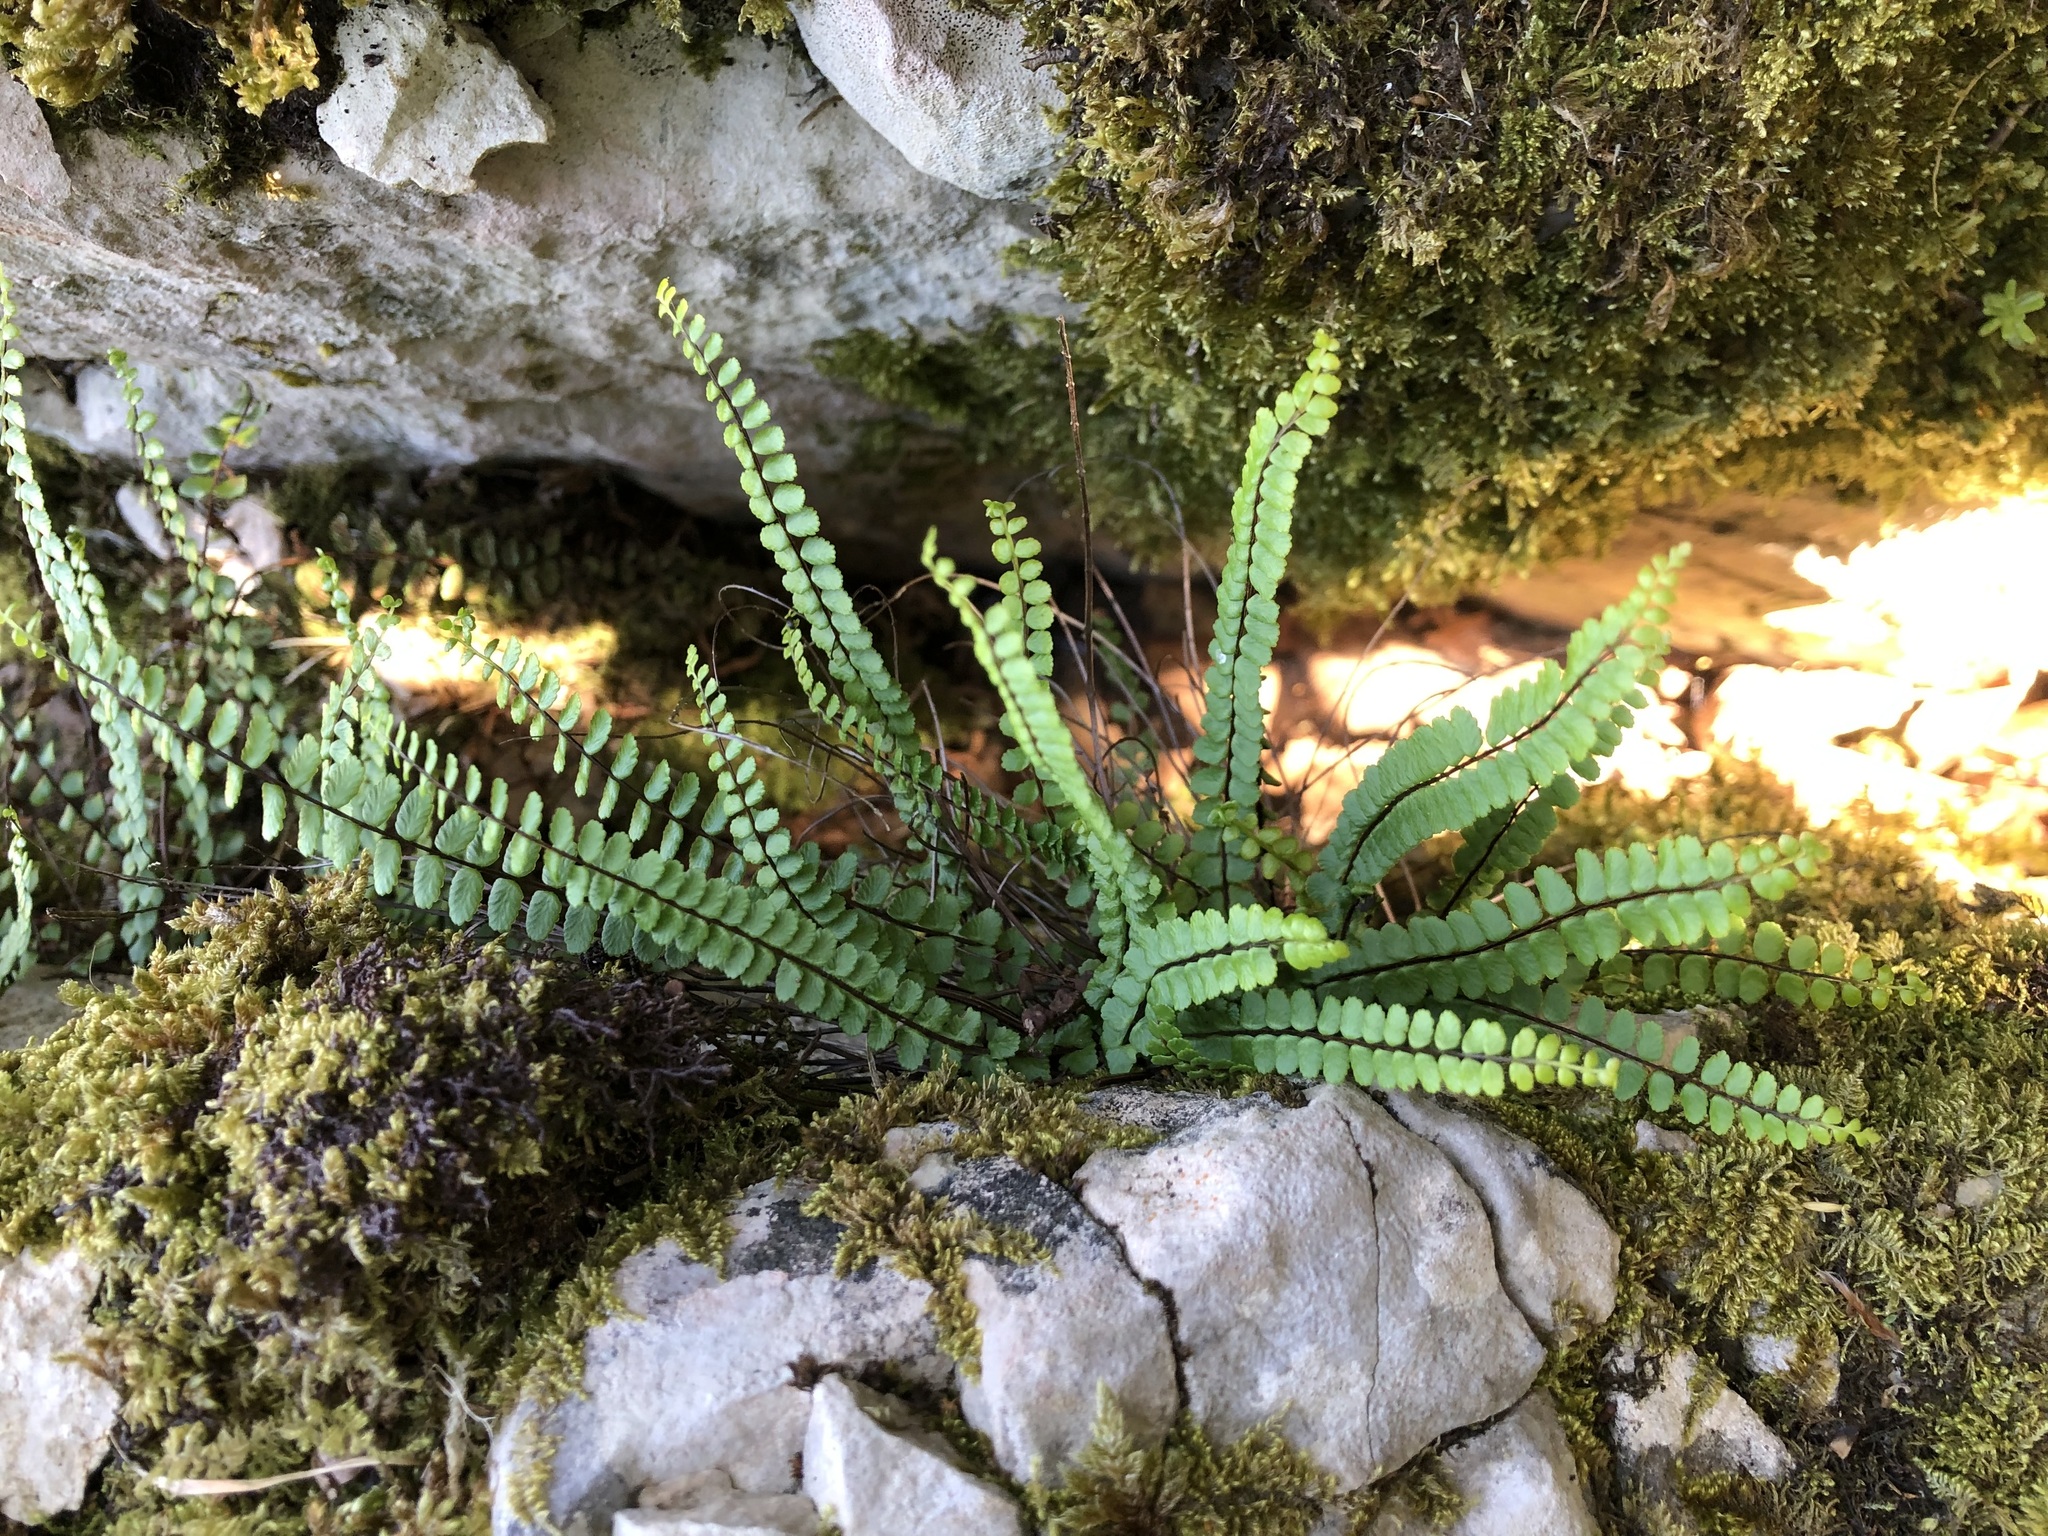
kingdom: Plantae
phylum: Tracheophyta
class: Polypodiopsida
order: Polypodiales
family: Aspleniaceae
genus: Asplenium
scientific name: Asplenium trichomanes
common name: Maidenhair spleenwort
